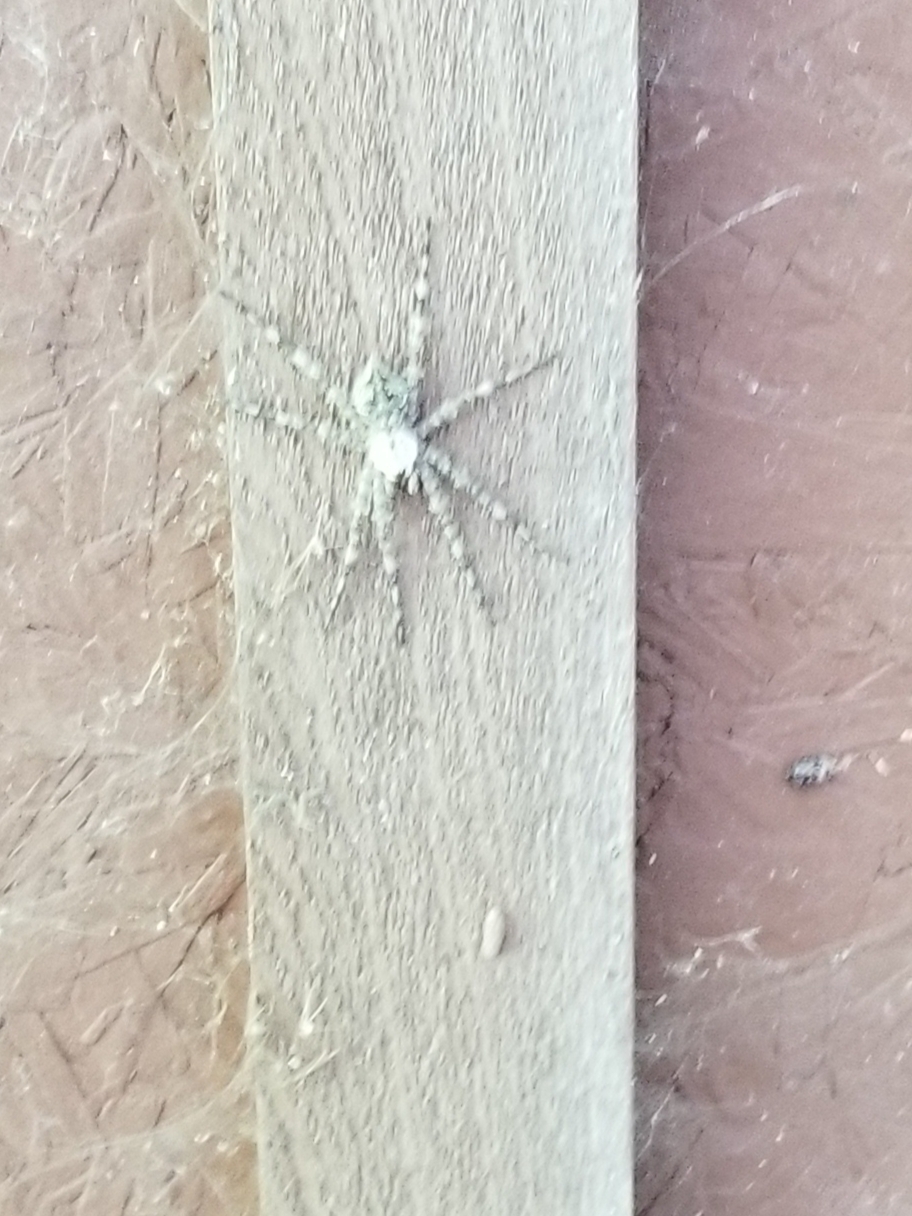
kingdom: Animalia
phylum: Arthropoda
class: Arachnida
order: Araneae
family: Pisauridae
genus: Dolomedes
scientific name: Dolomedes albineus
